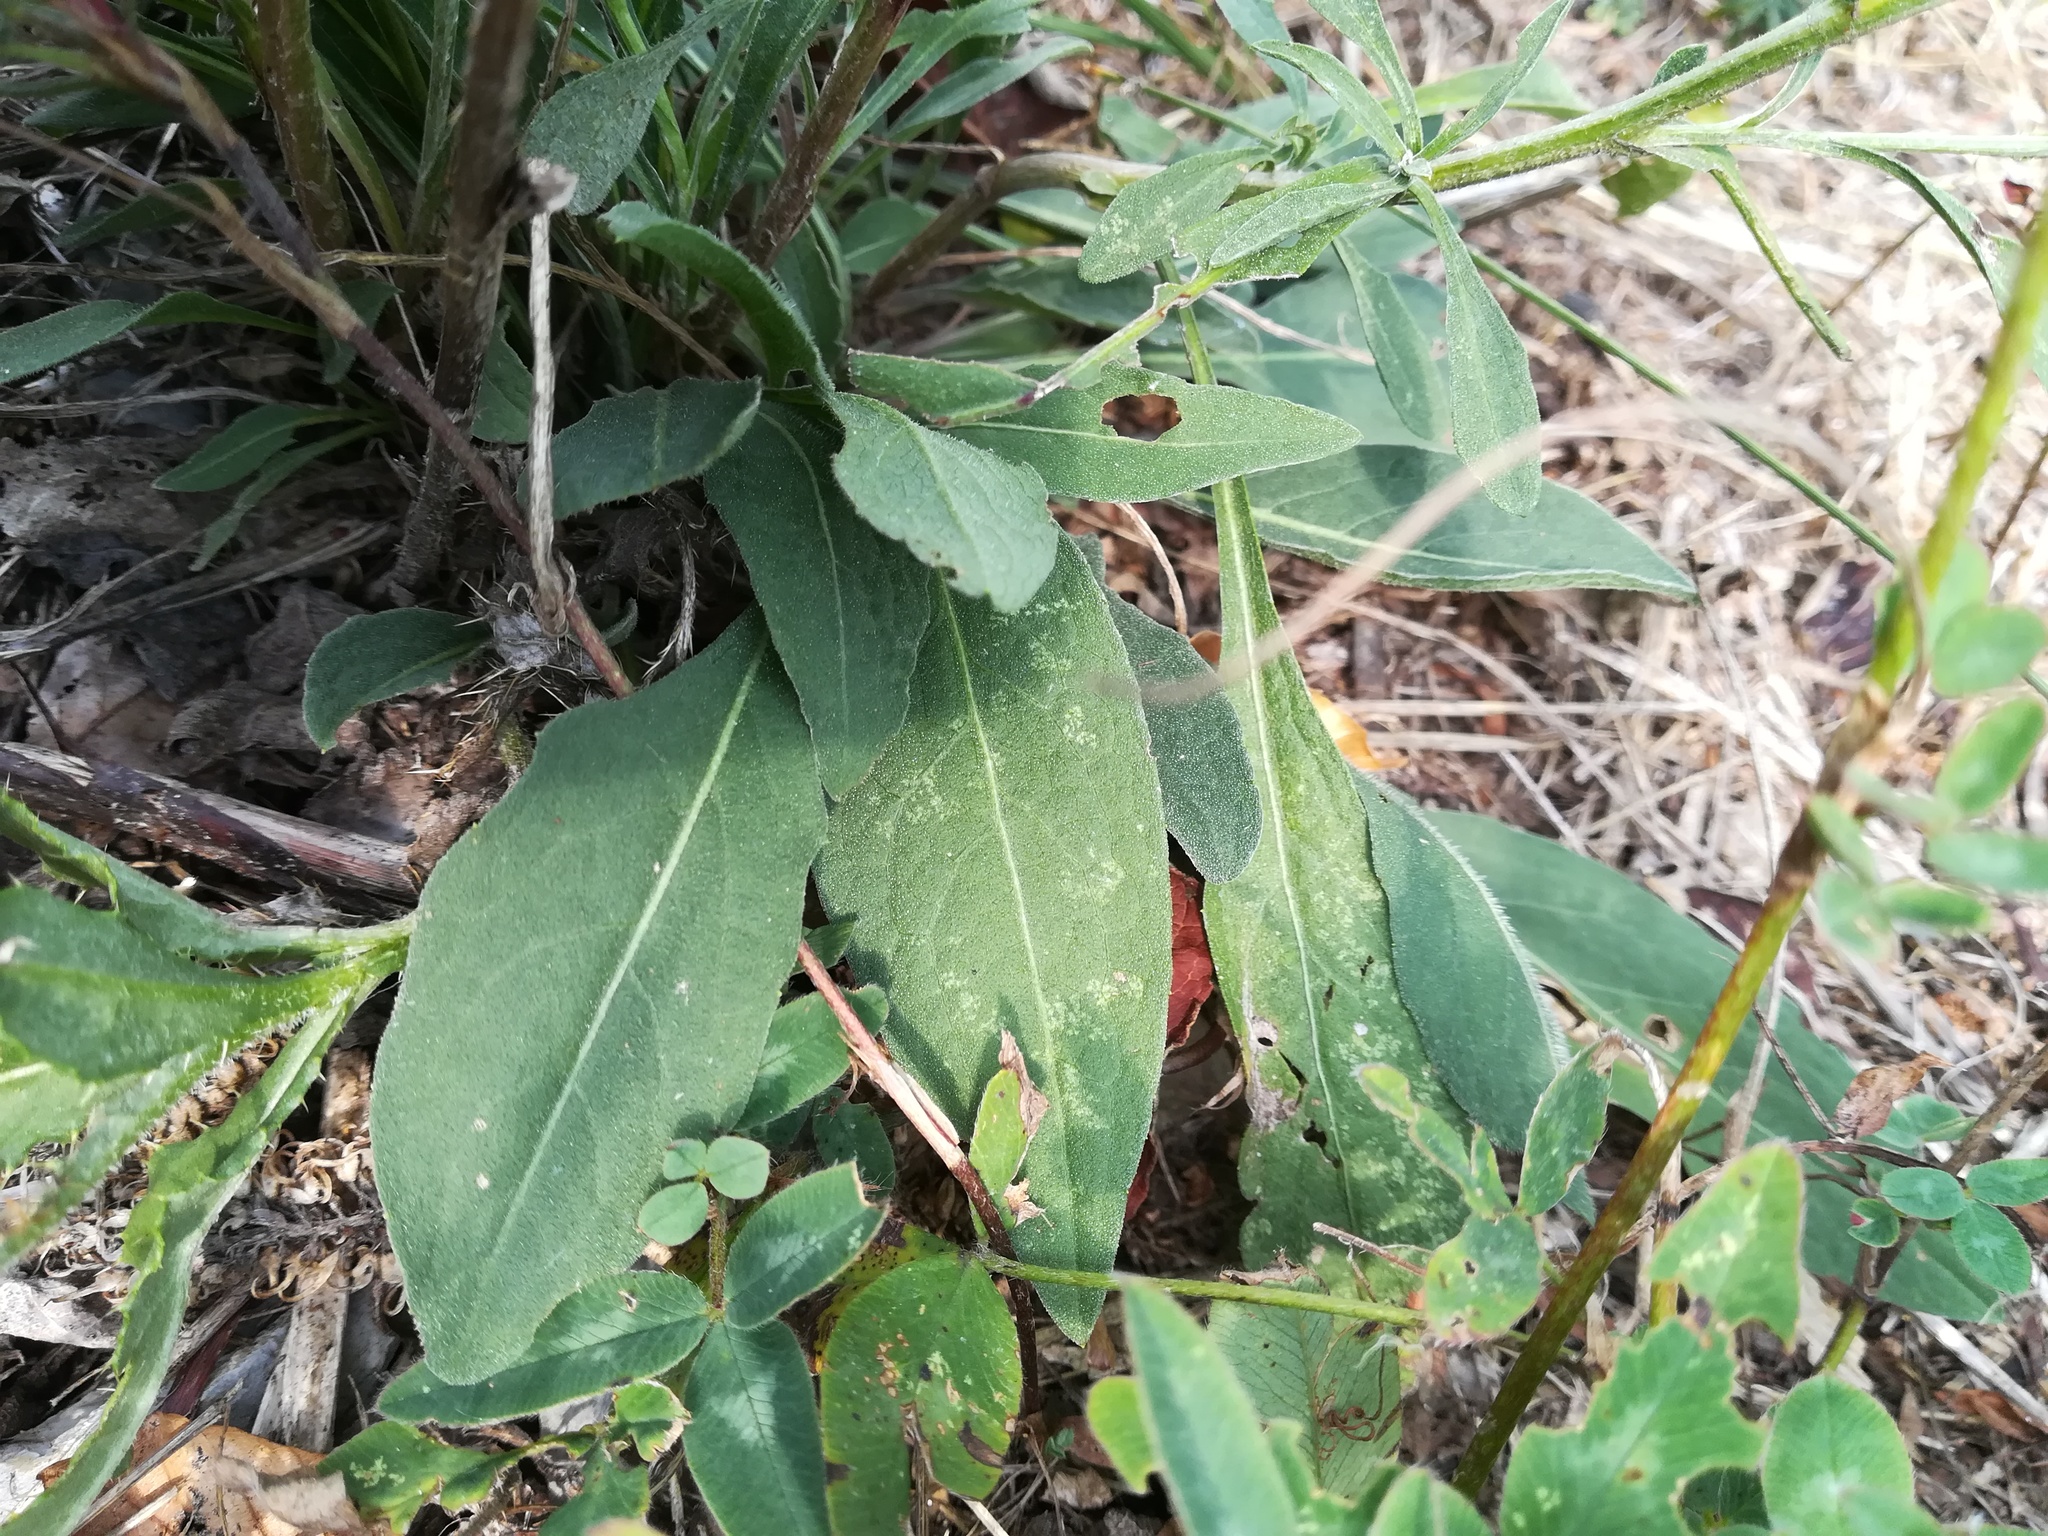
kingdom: Plantae
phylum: Tracheophyta
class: Magnoliopsida
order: Asterales
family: Asteraceae
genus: Centaurea
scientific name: Centaurea jacea
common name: Brown knapweed
